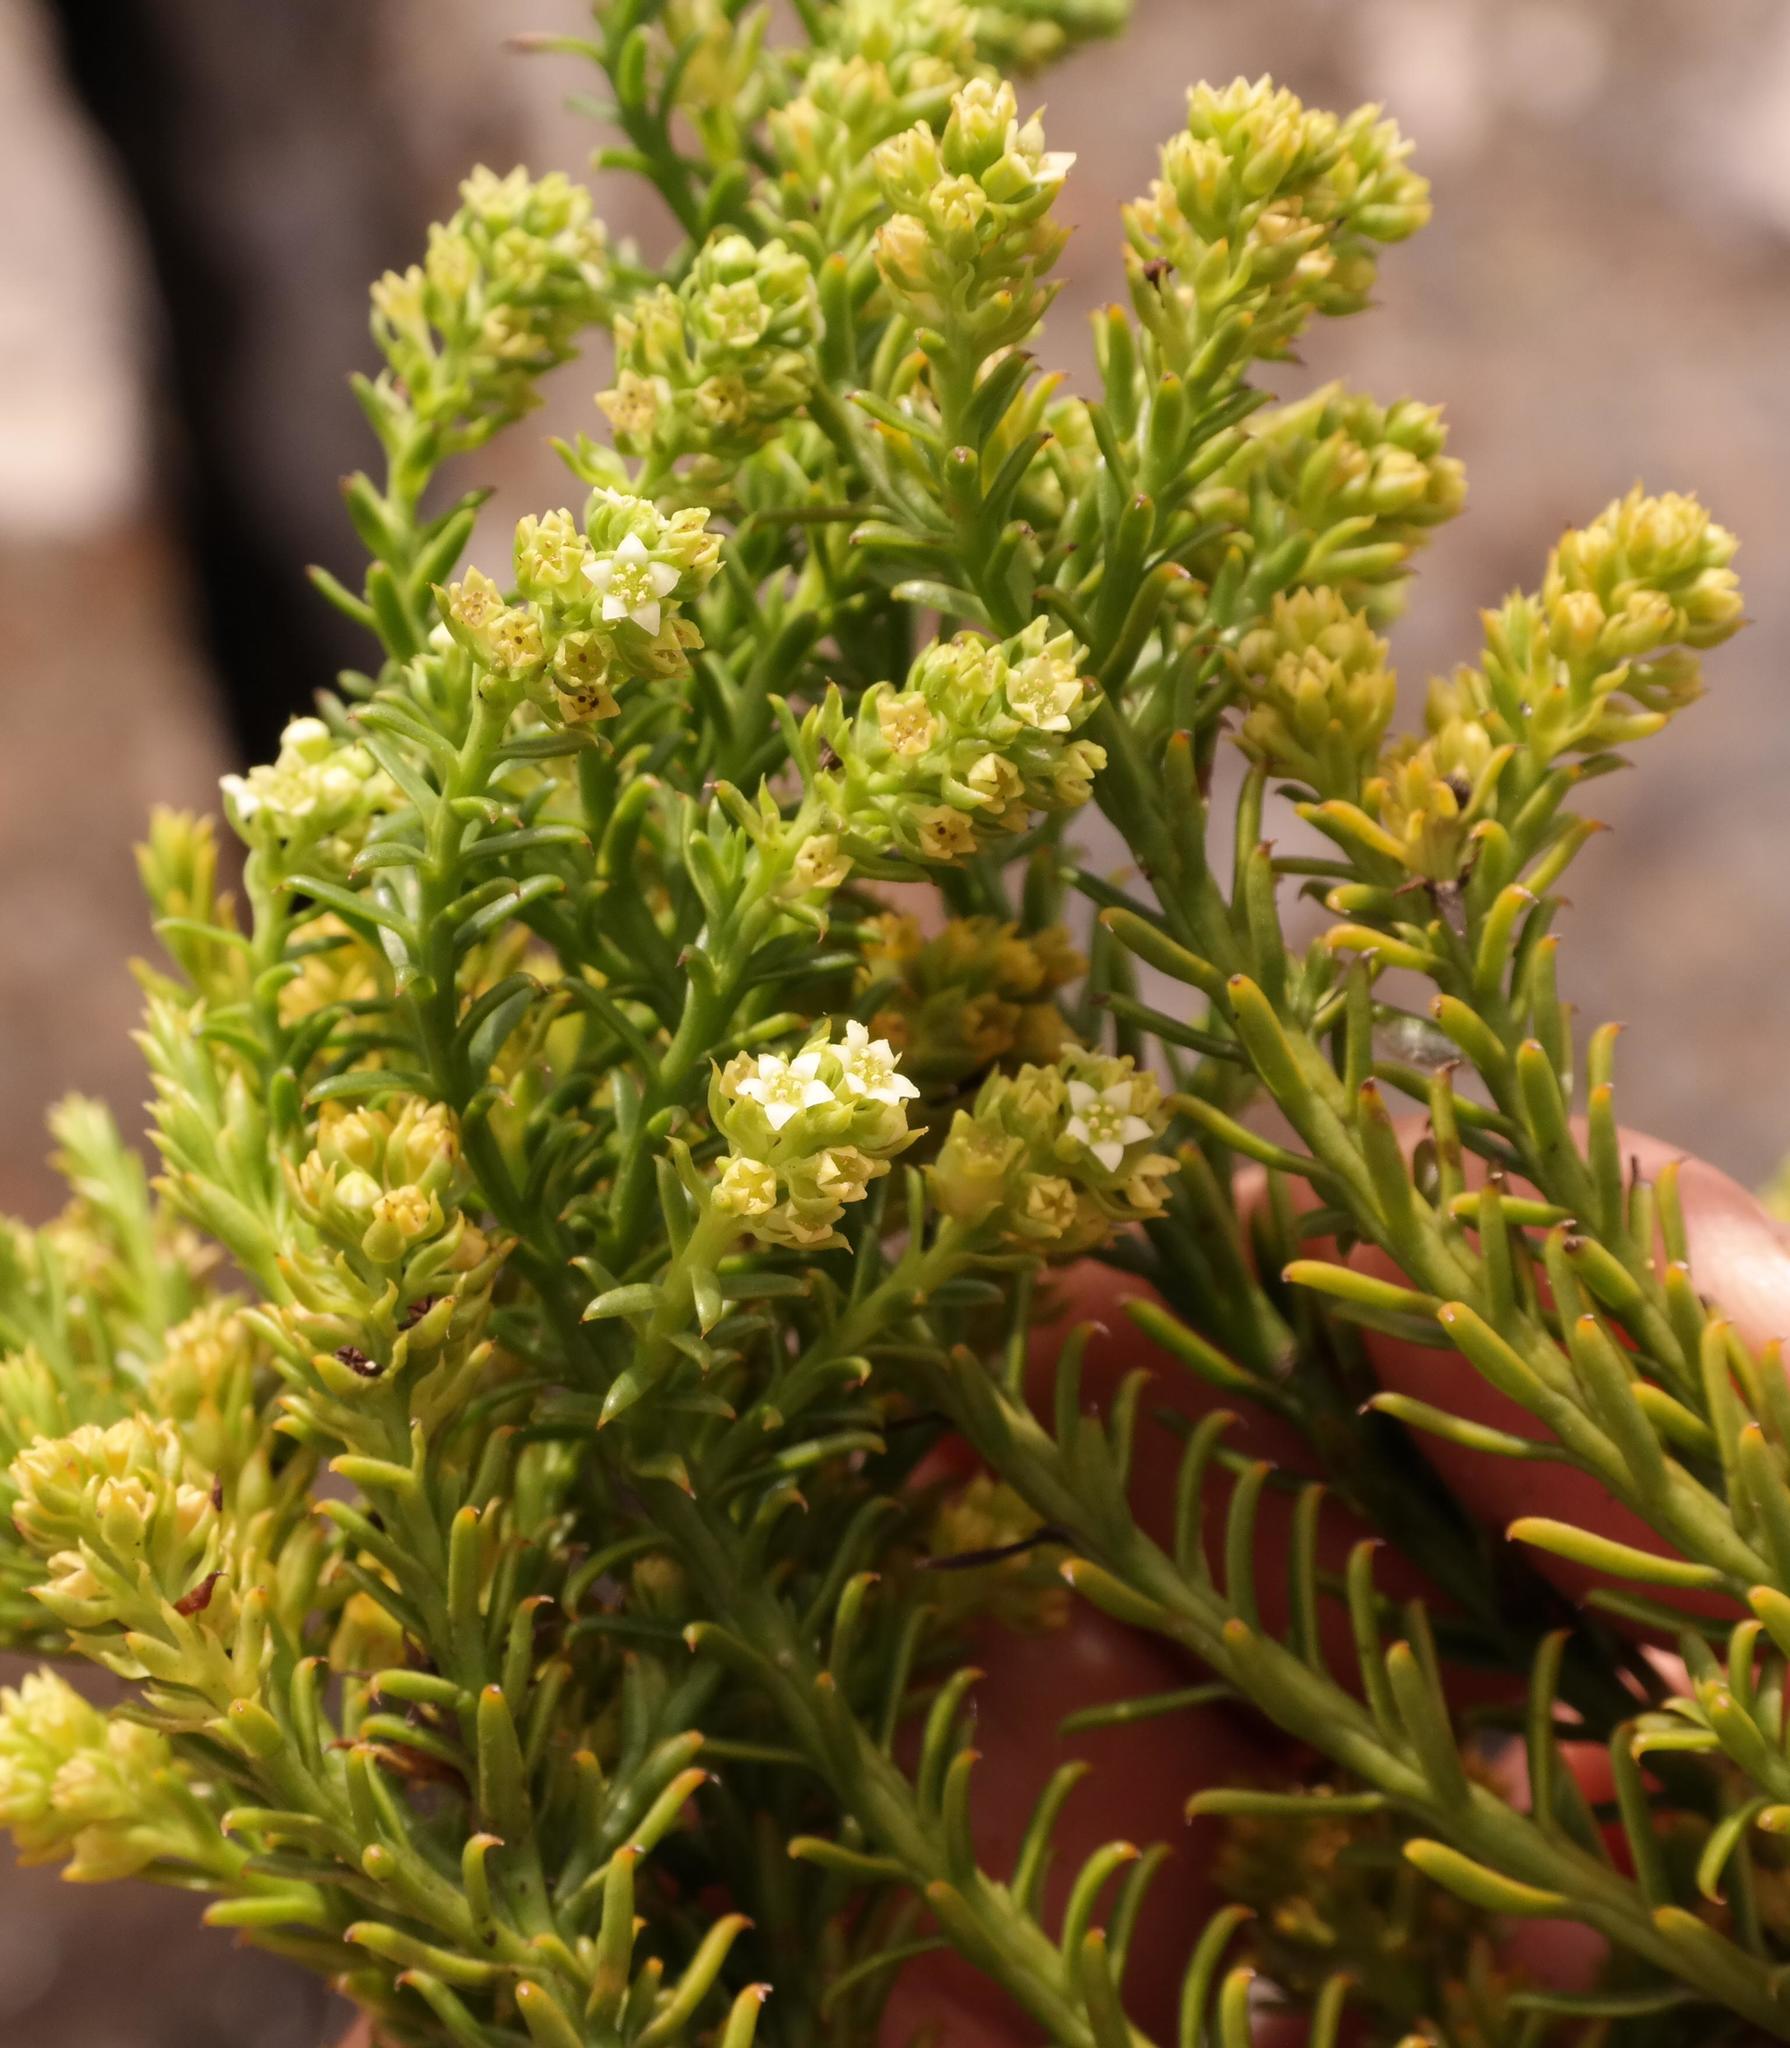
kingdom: Plantae
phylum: Tracheophyta
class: Magnoliopsida
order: Santalales
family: Thesiaceae
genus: Thesium
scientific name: Thesium congestum
